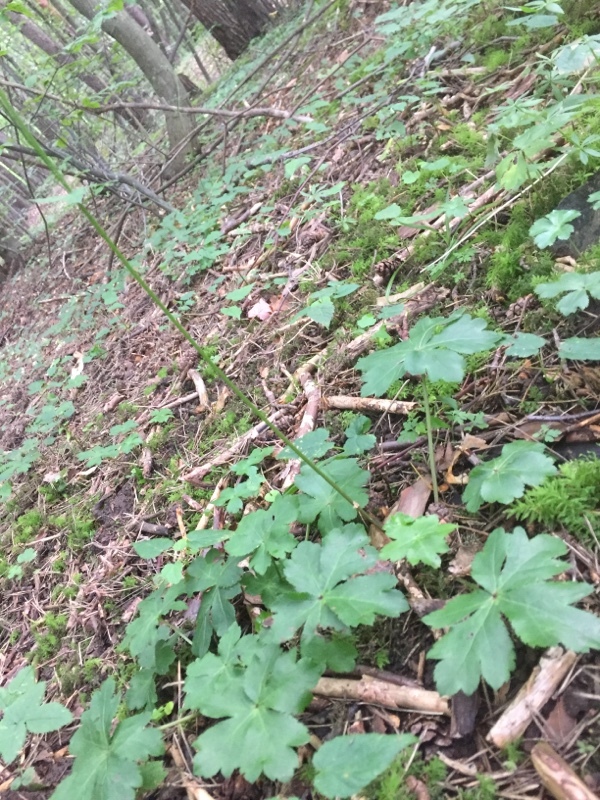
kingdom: Plantae
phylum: Tracheophyta
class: Magnoliopsida
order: Apiales
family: Apiaceae
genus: Sanicula
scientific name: Sanicula europaea
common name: Sanicle
